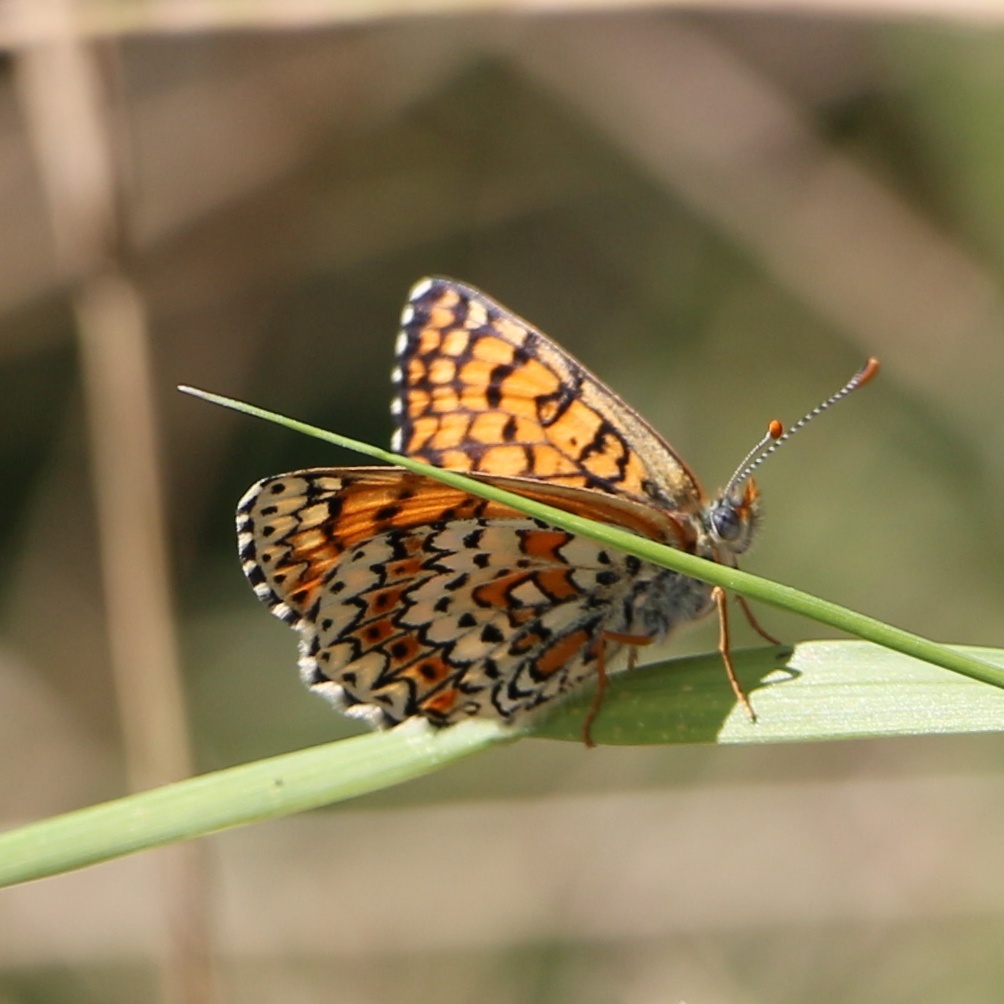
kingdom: Animalia
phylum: Arthropoda
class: Insecta
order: Lepidoptera
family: Nymphalidae
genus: Melitaea
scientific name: Melitaea cinxia
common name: Glanville fritillary
